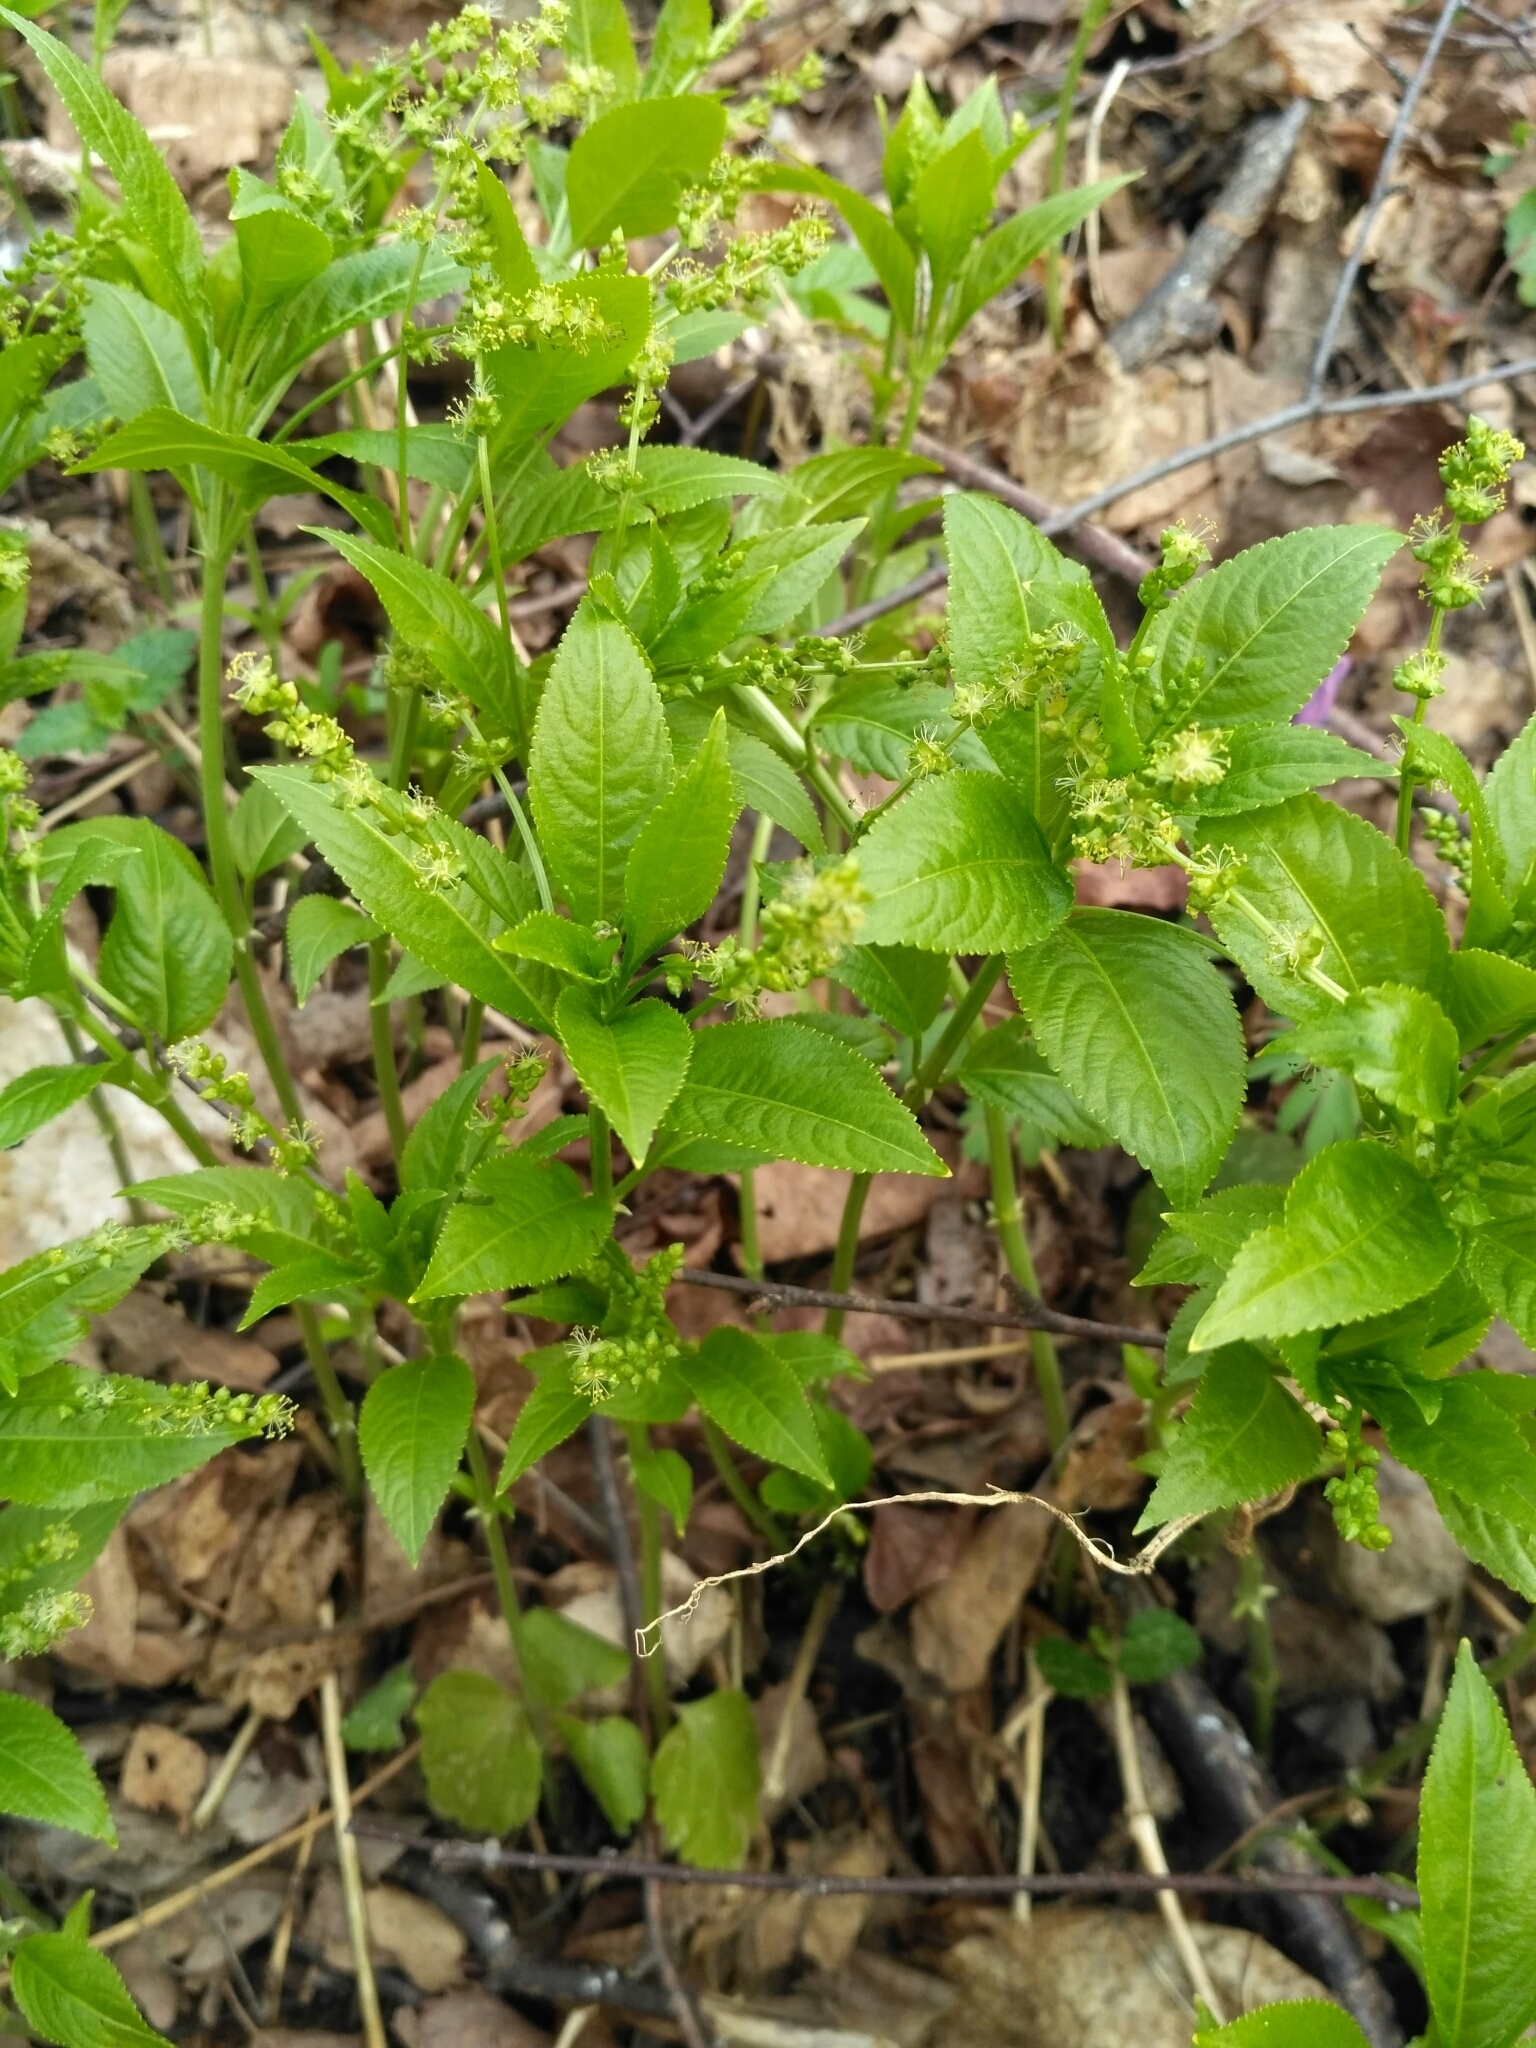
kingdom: Plantae
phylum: Tracheophyta
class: Magnoliopsida
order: Malpighiales
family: Euphorbiaceae
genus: Mercurialis
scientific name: Mercurialis perennis
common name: Dog mercury
